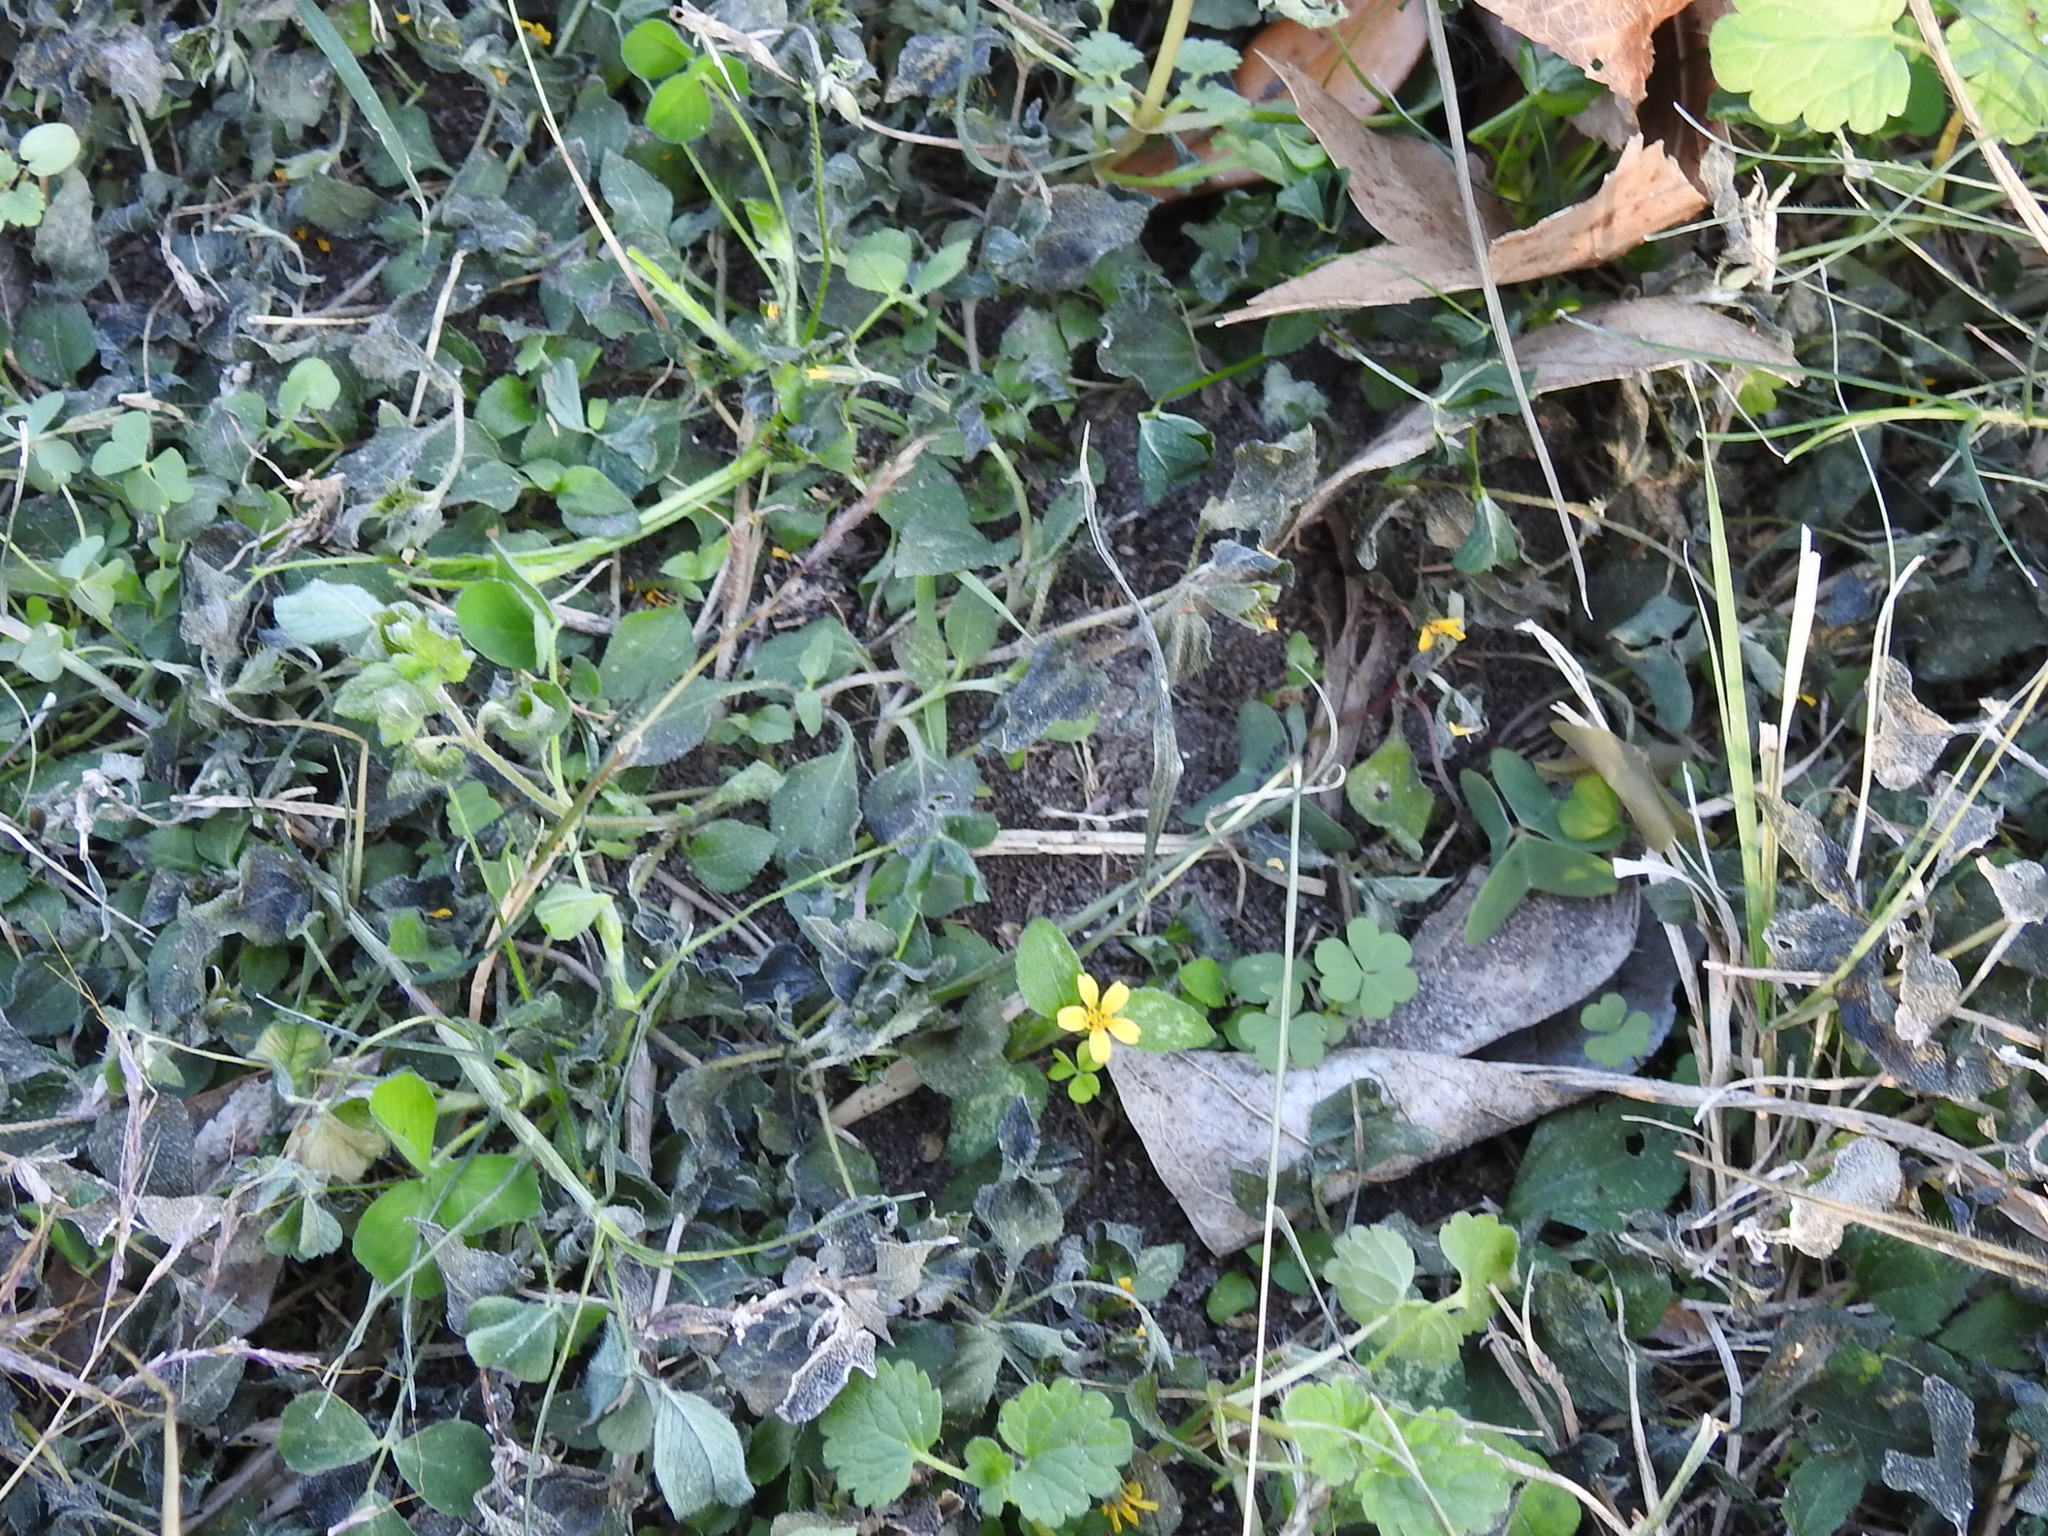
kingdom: Plantae
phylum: Tracheophyta
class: Magnoliopsida
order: Asterales
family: Asteraceae
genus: Calyptocarpus
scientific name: Calyptocarpus vialis
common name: Straggler daisy
